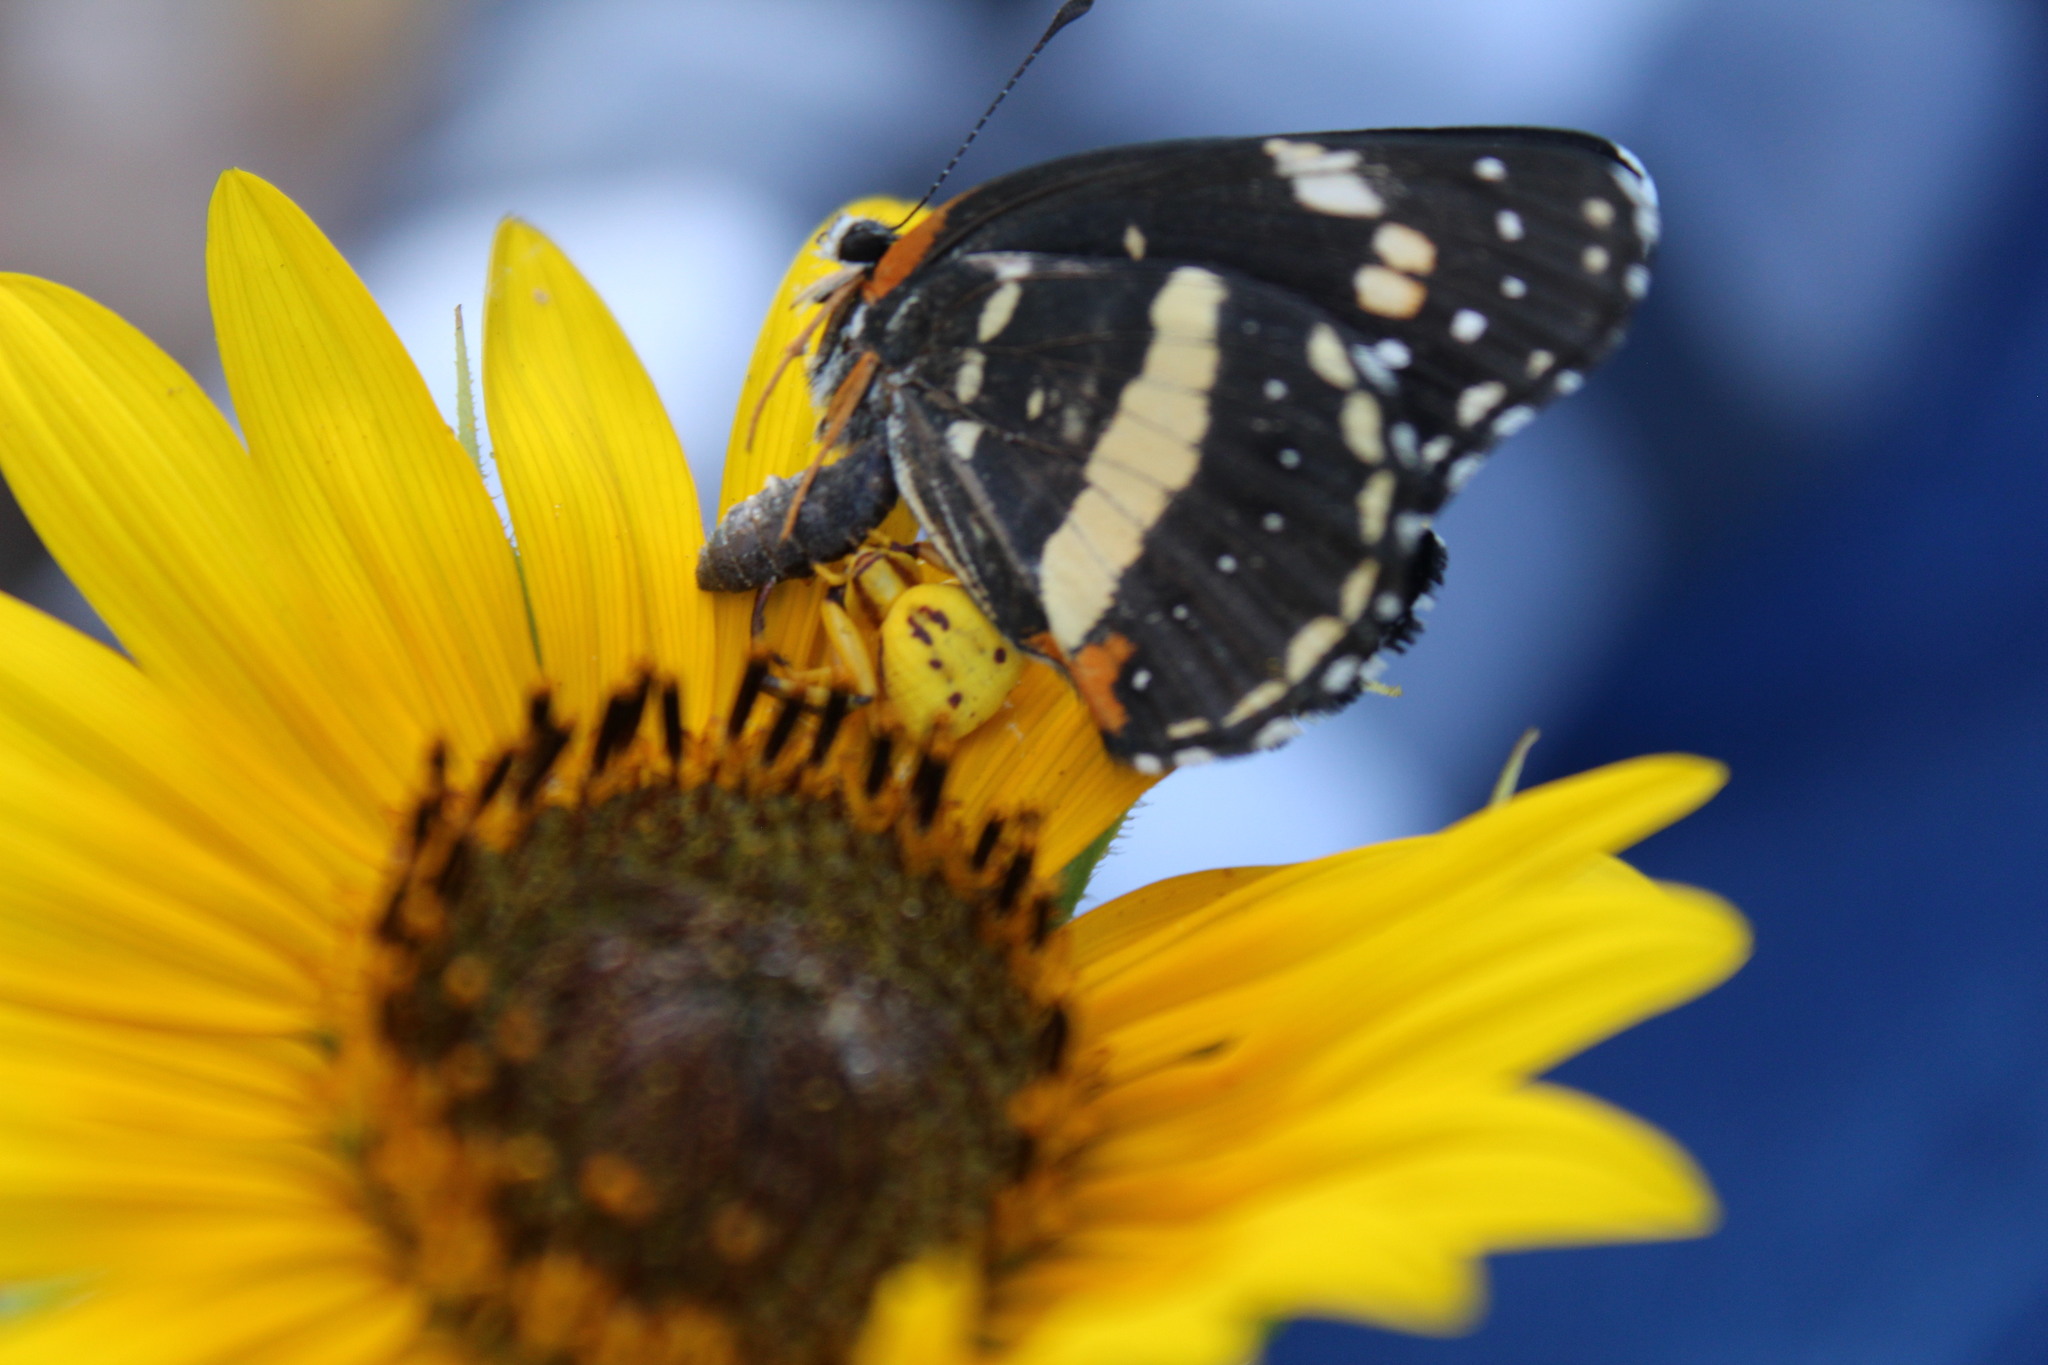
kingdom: Animalia
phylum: Arthropoda
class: Arachnida
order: Araneae
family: Thomisidae
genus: Misumenoides
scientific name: Misumenoides formosipes
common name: White-banded crab spider
